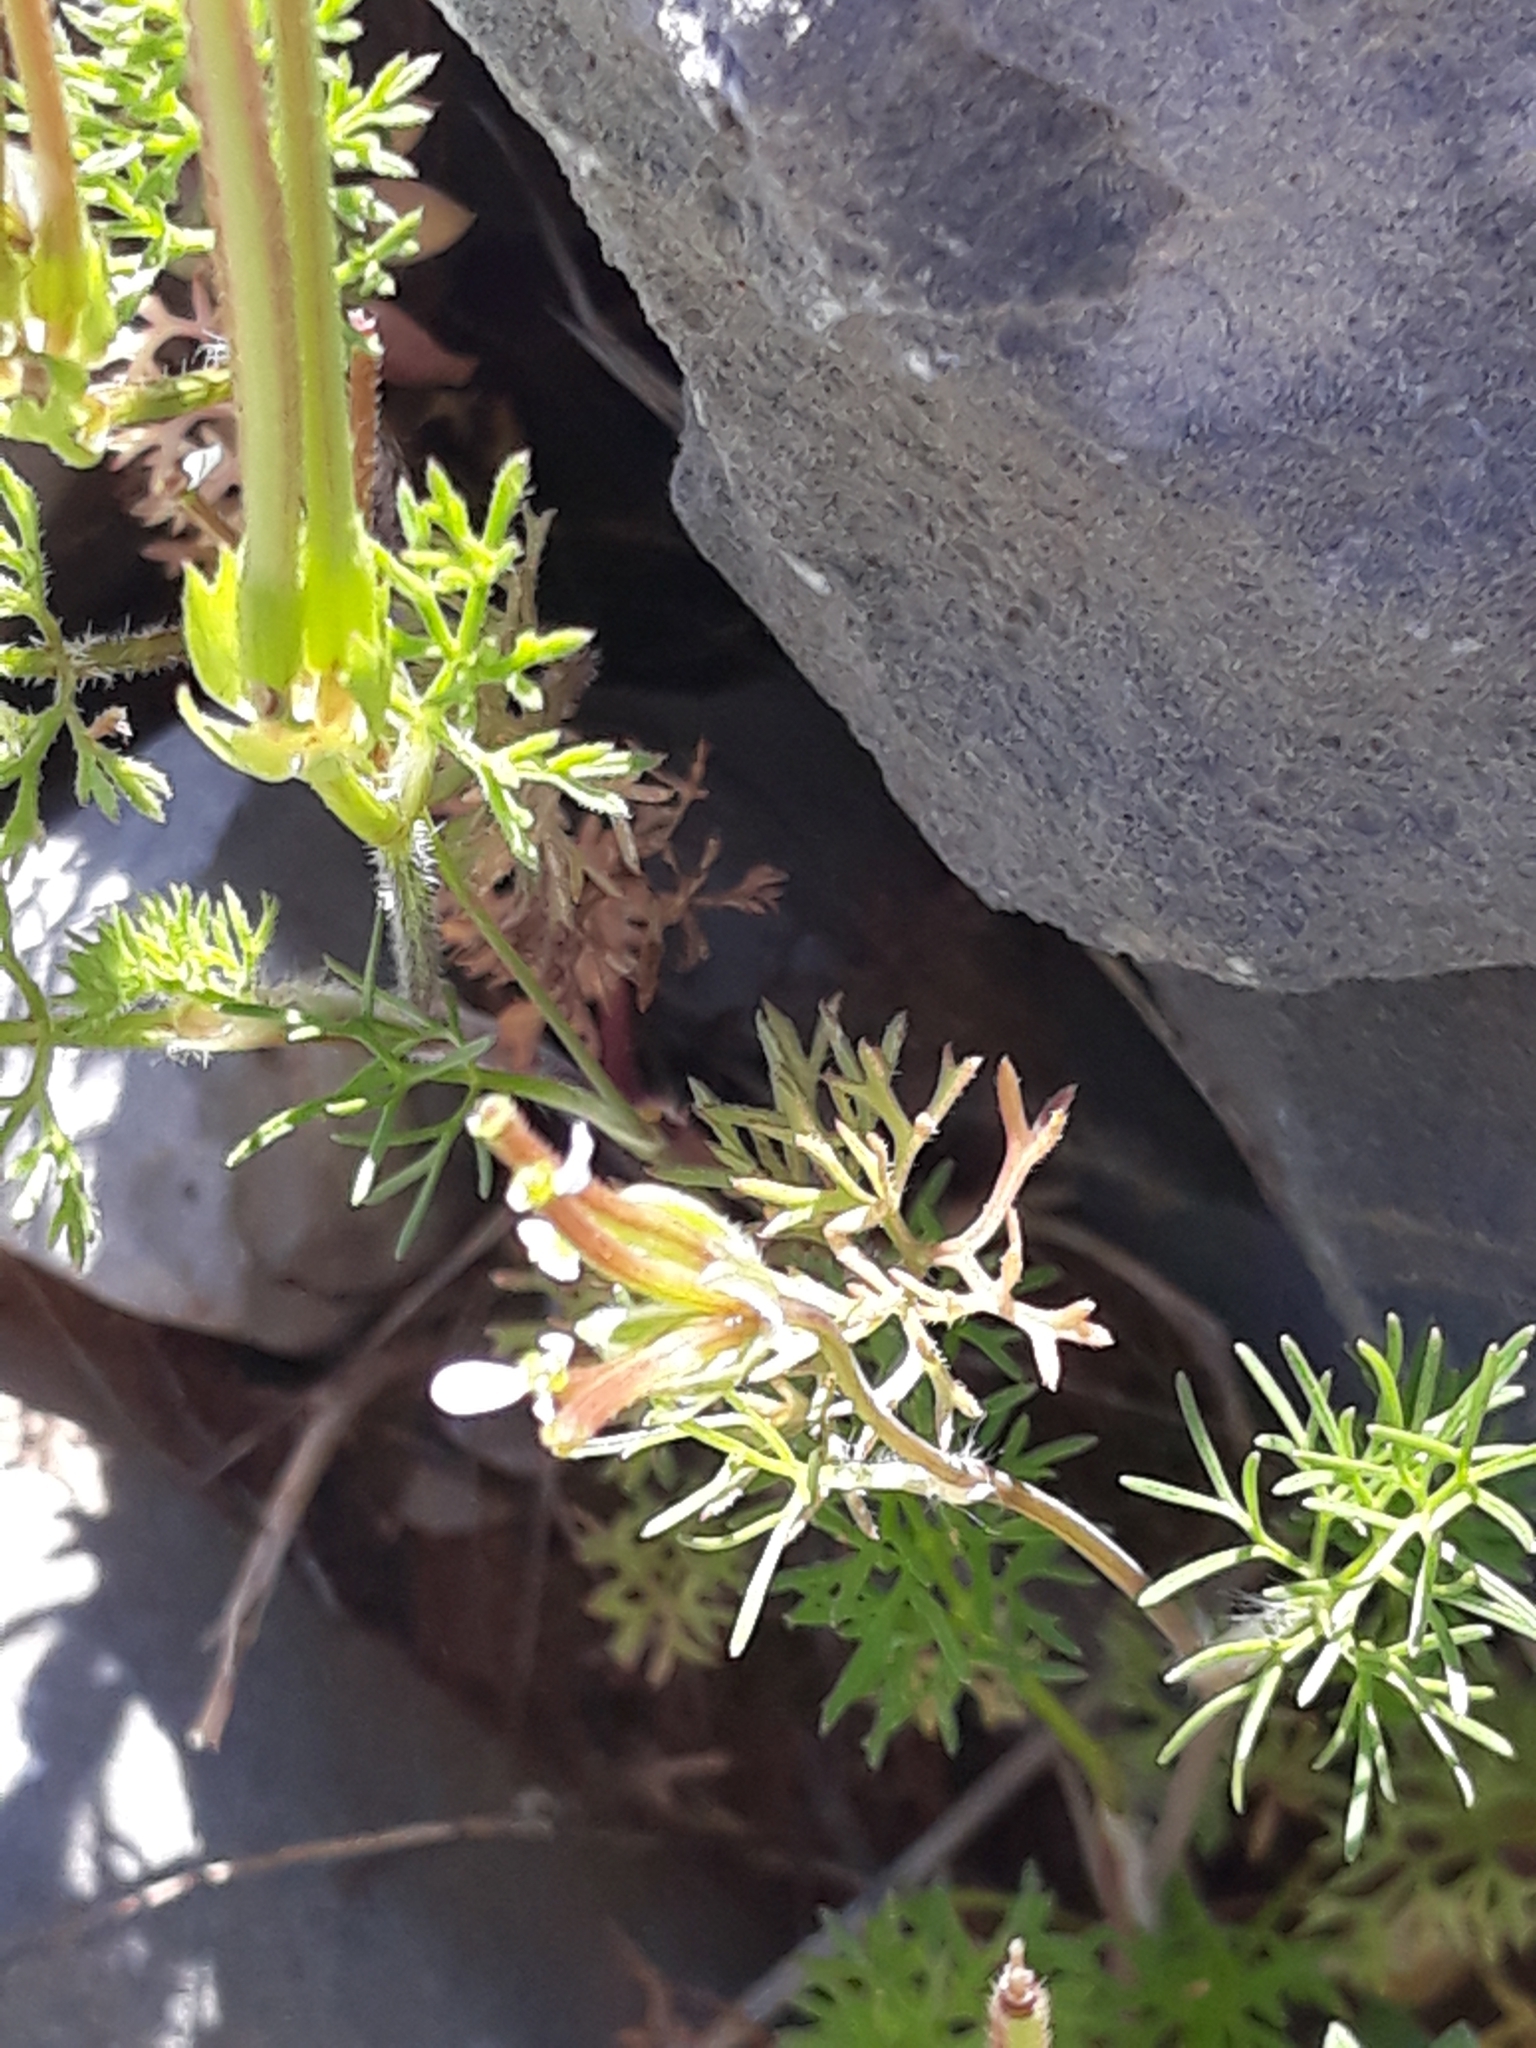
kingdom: Plantae
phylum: Tracheophyta
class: Magnoliopsida
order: Apiales
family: Apiaceae
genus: Scandix
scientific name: Scandix pecten-veneris
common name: Shepherd's-needle
